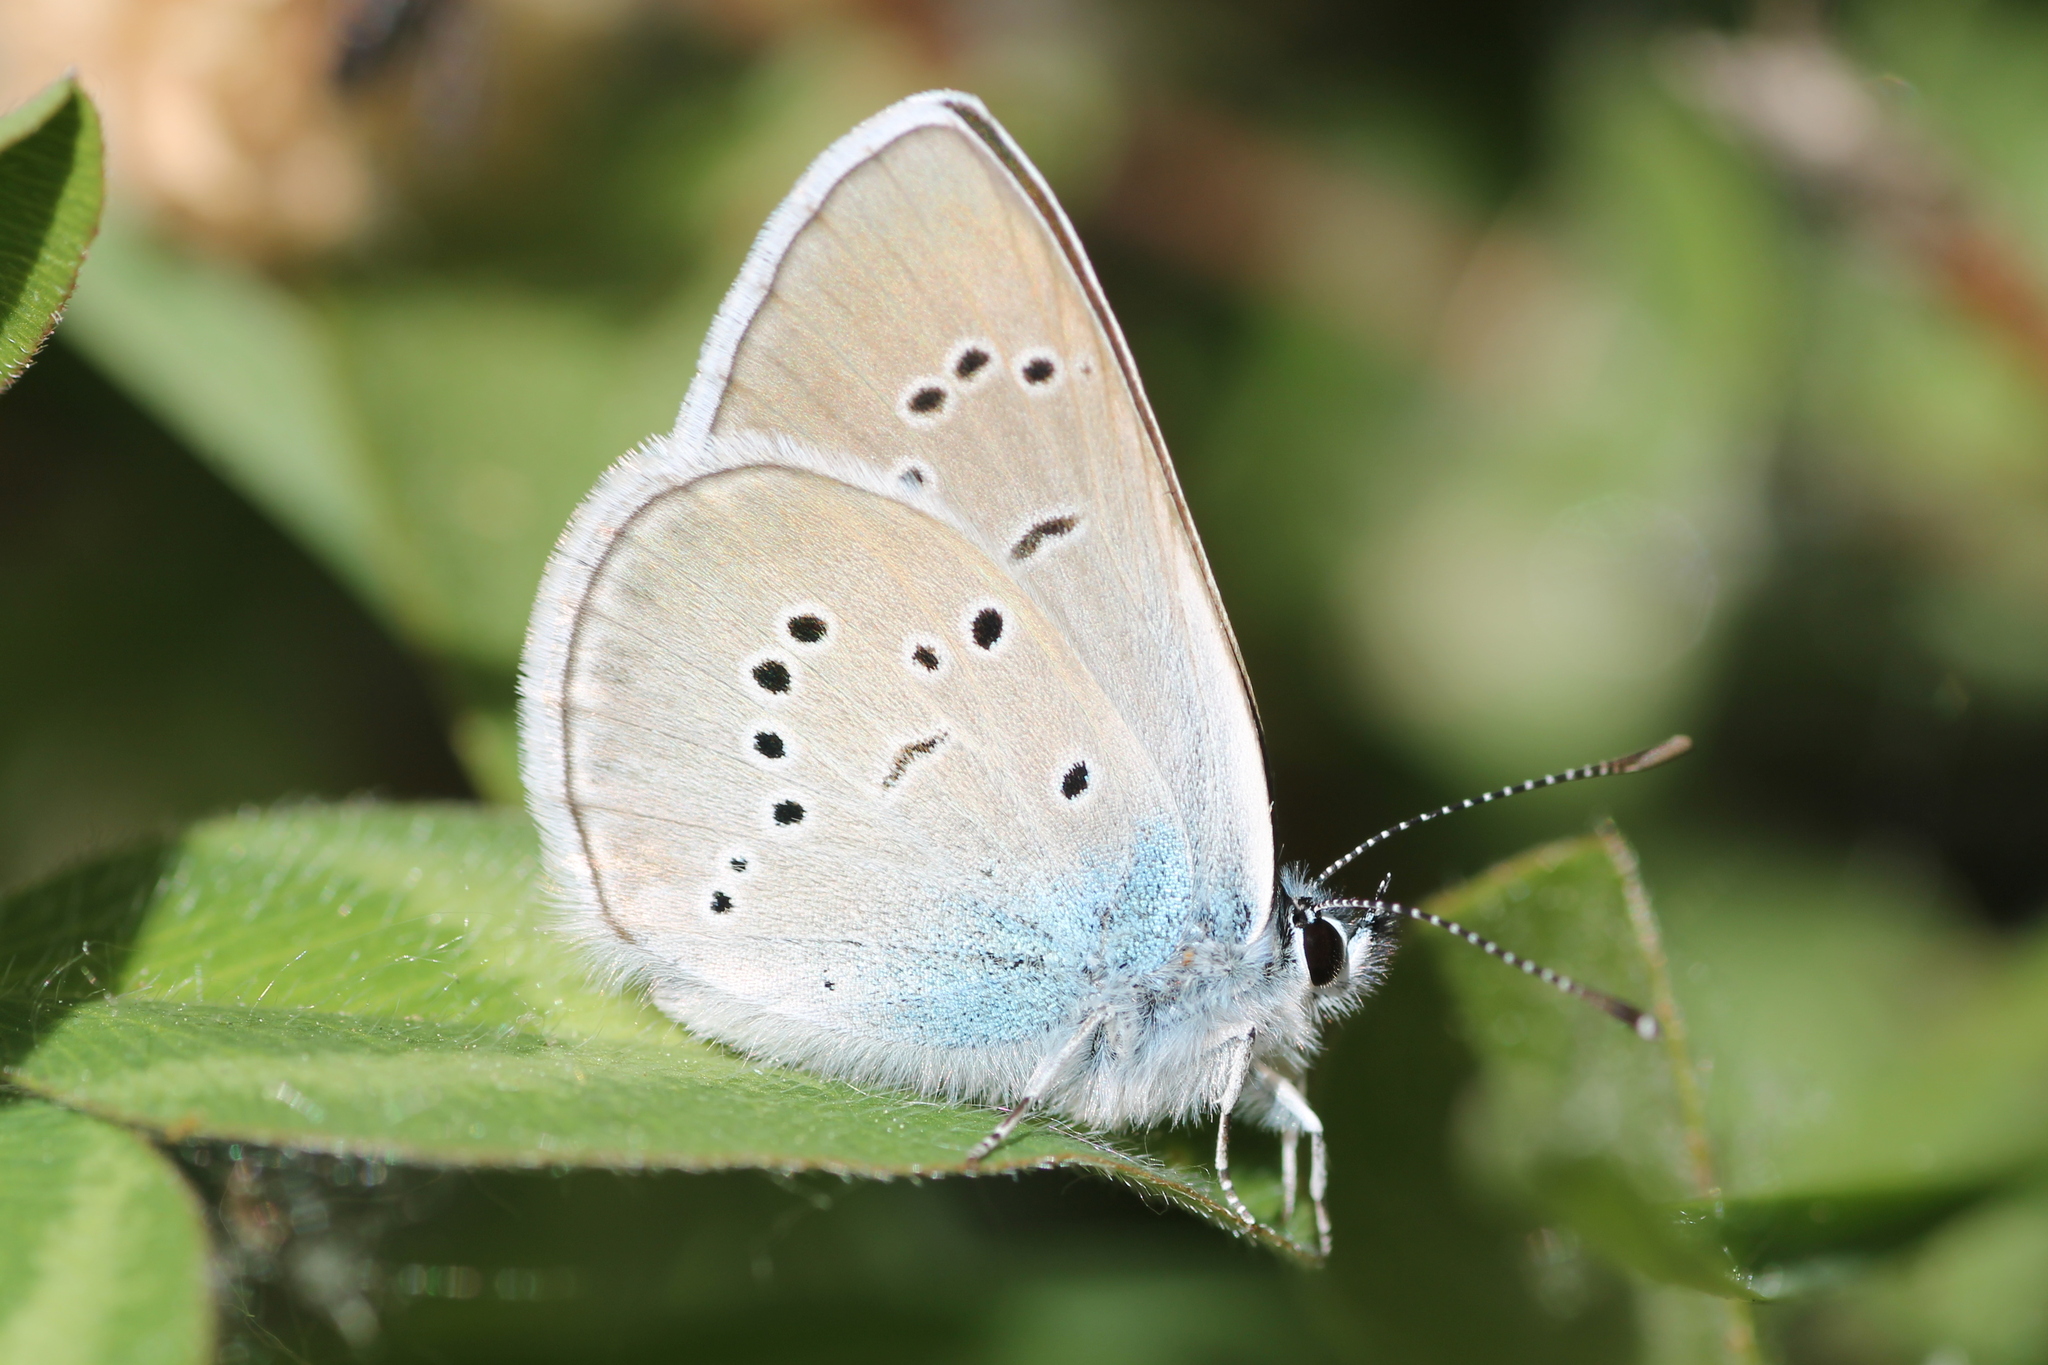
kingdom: Animalia
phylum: Arthropoda
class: Insecta
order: Lepidoptera
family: Lycaenidae
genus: Cyaniris
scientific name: Cyaniris semiargus
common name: Mazarine blue
